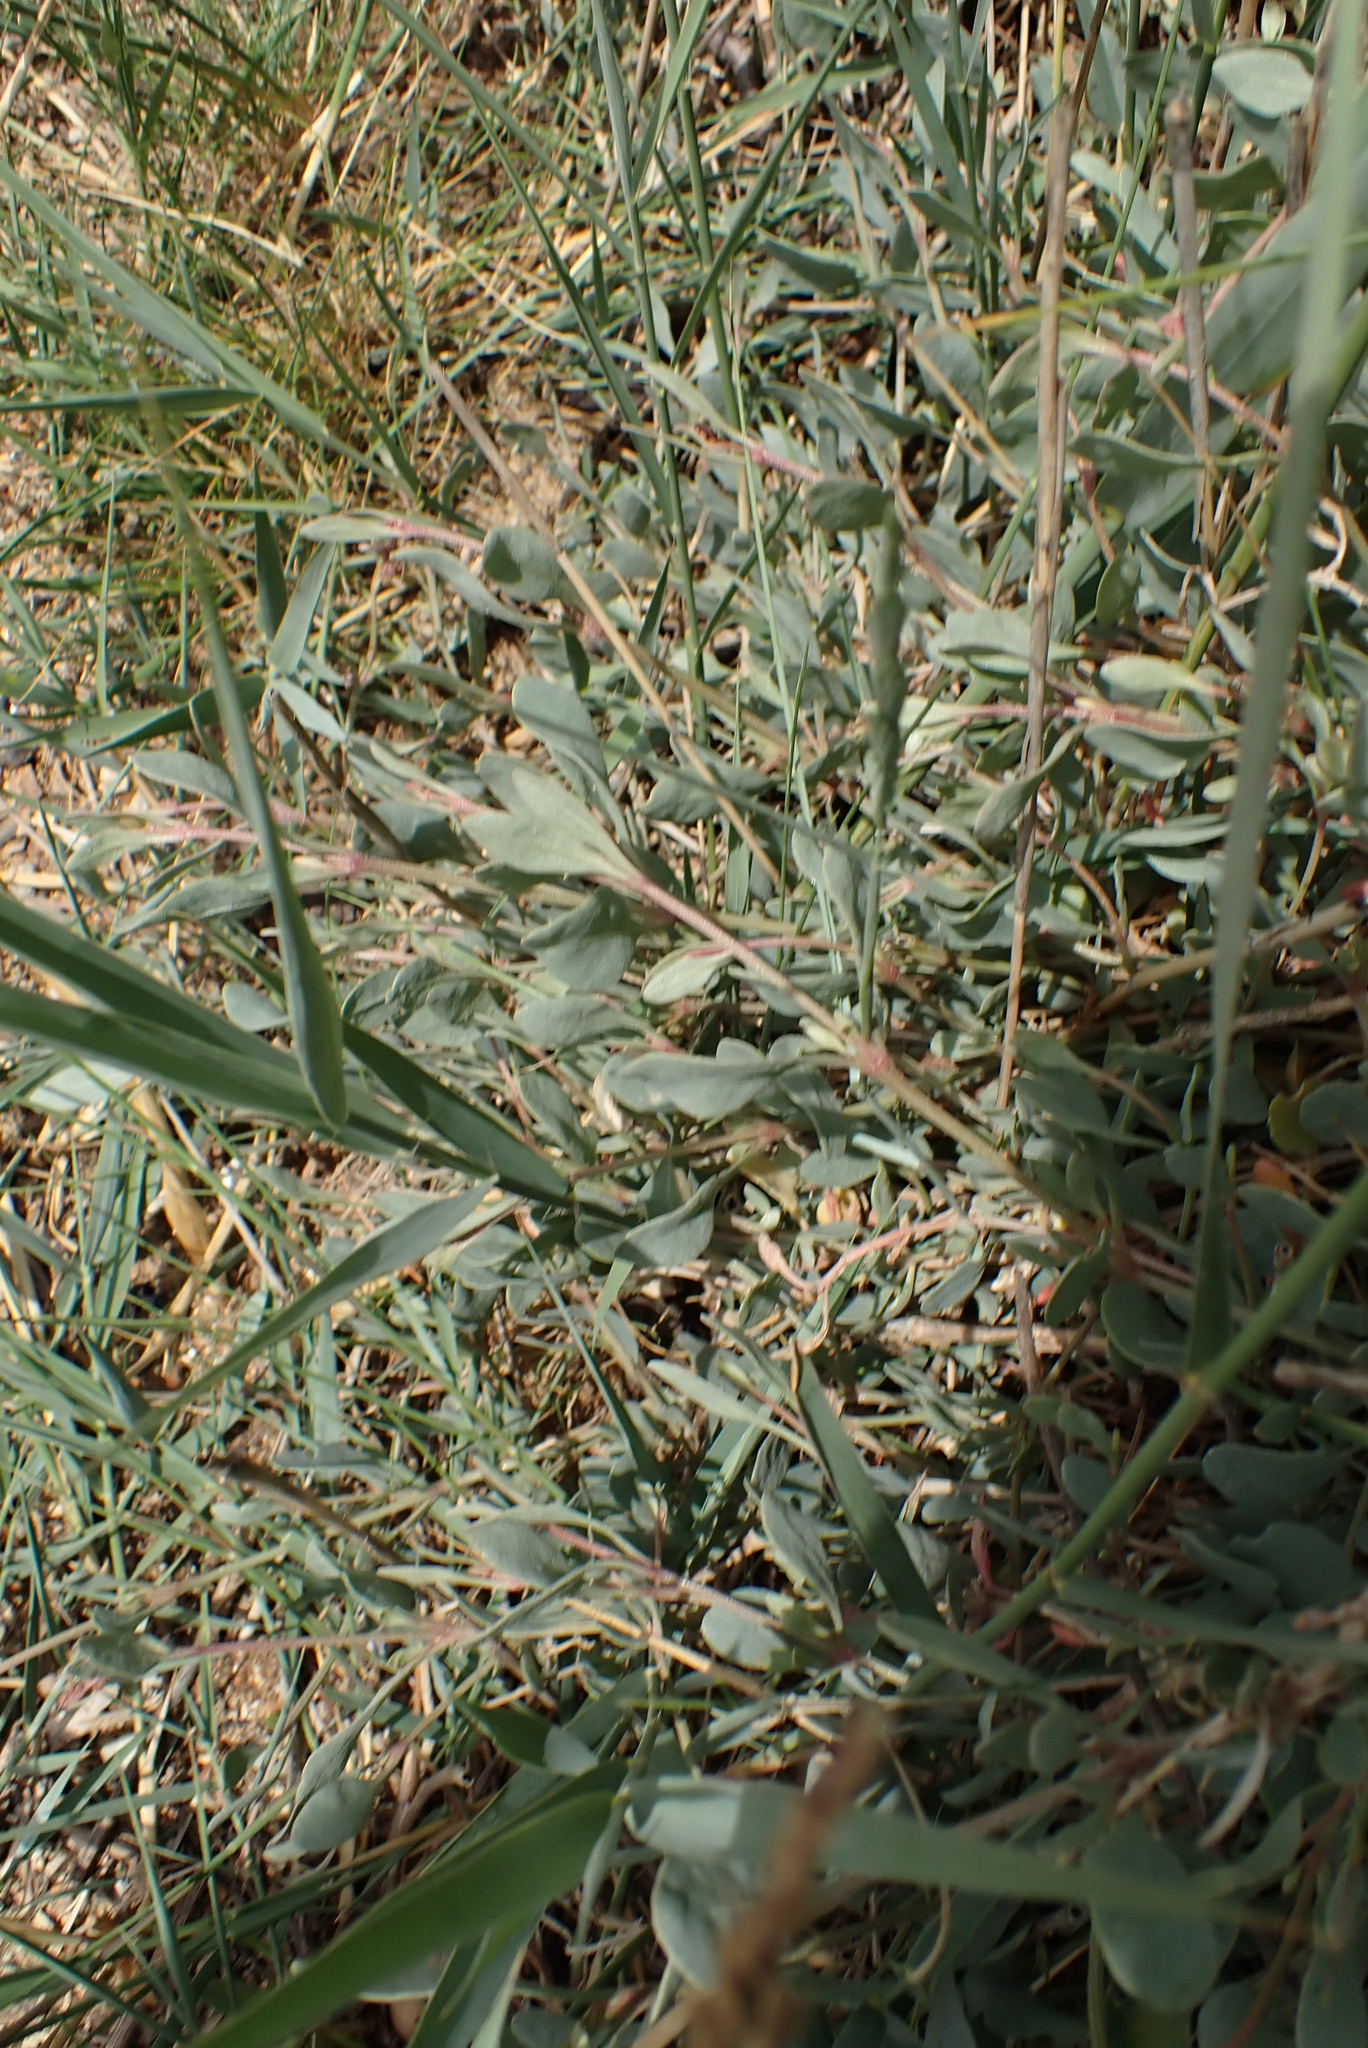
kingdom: Plantae
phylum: Tracheophyta
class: Magnoliopsida
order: Caryophyllales
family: Amaranthaceae
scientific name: Amaranthaceae
